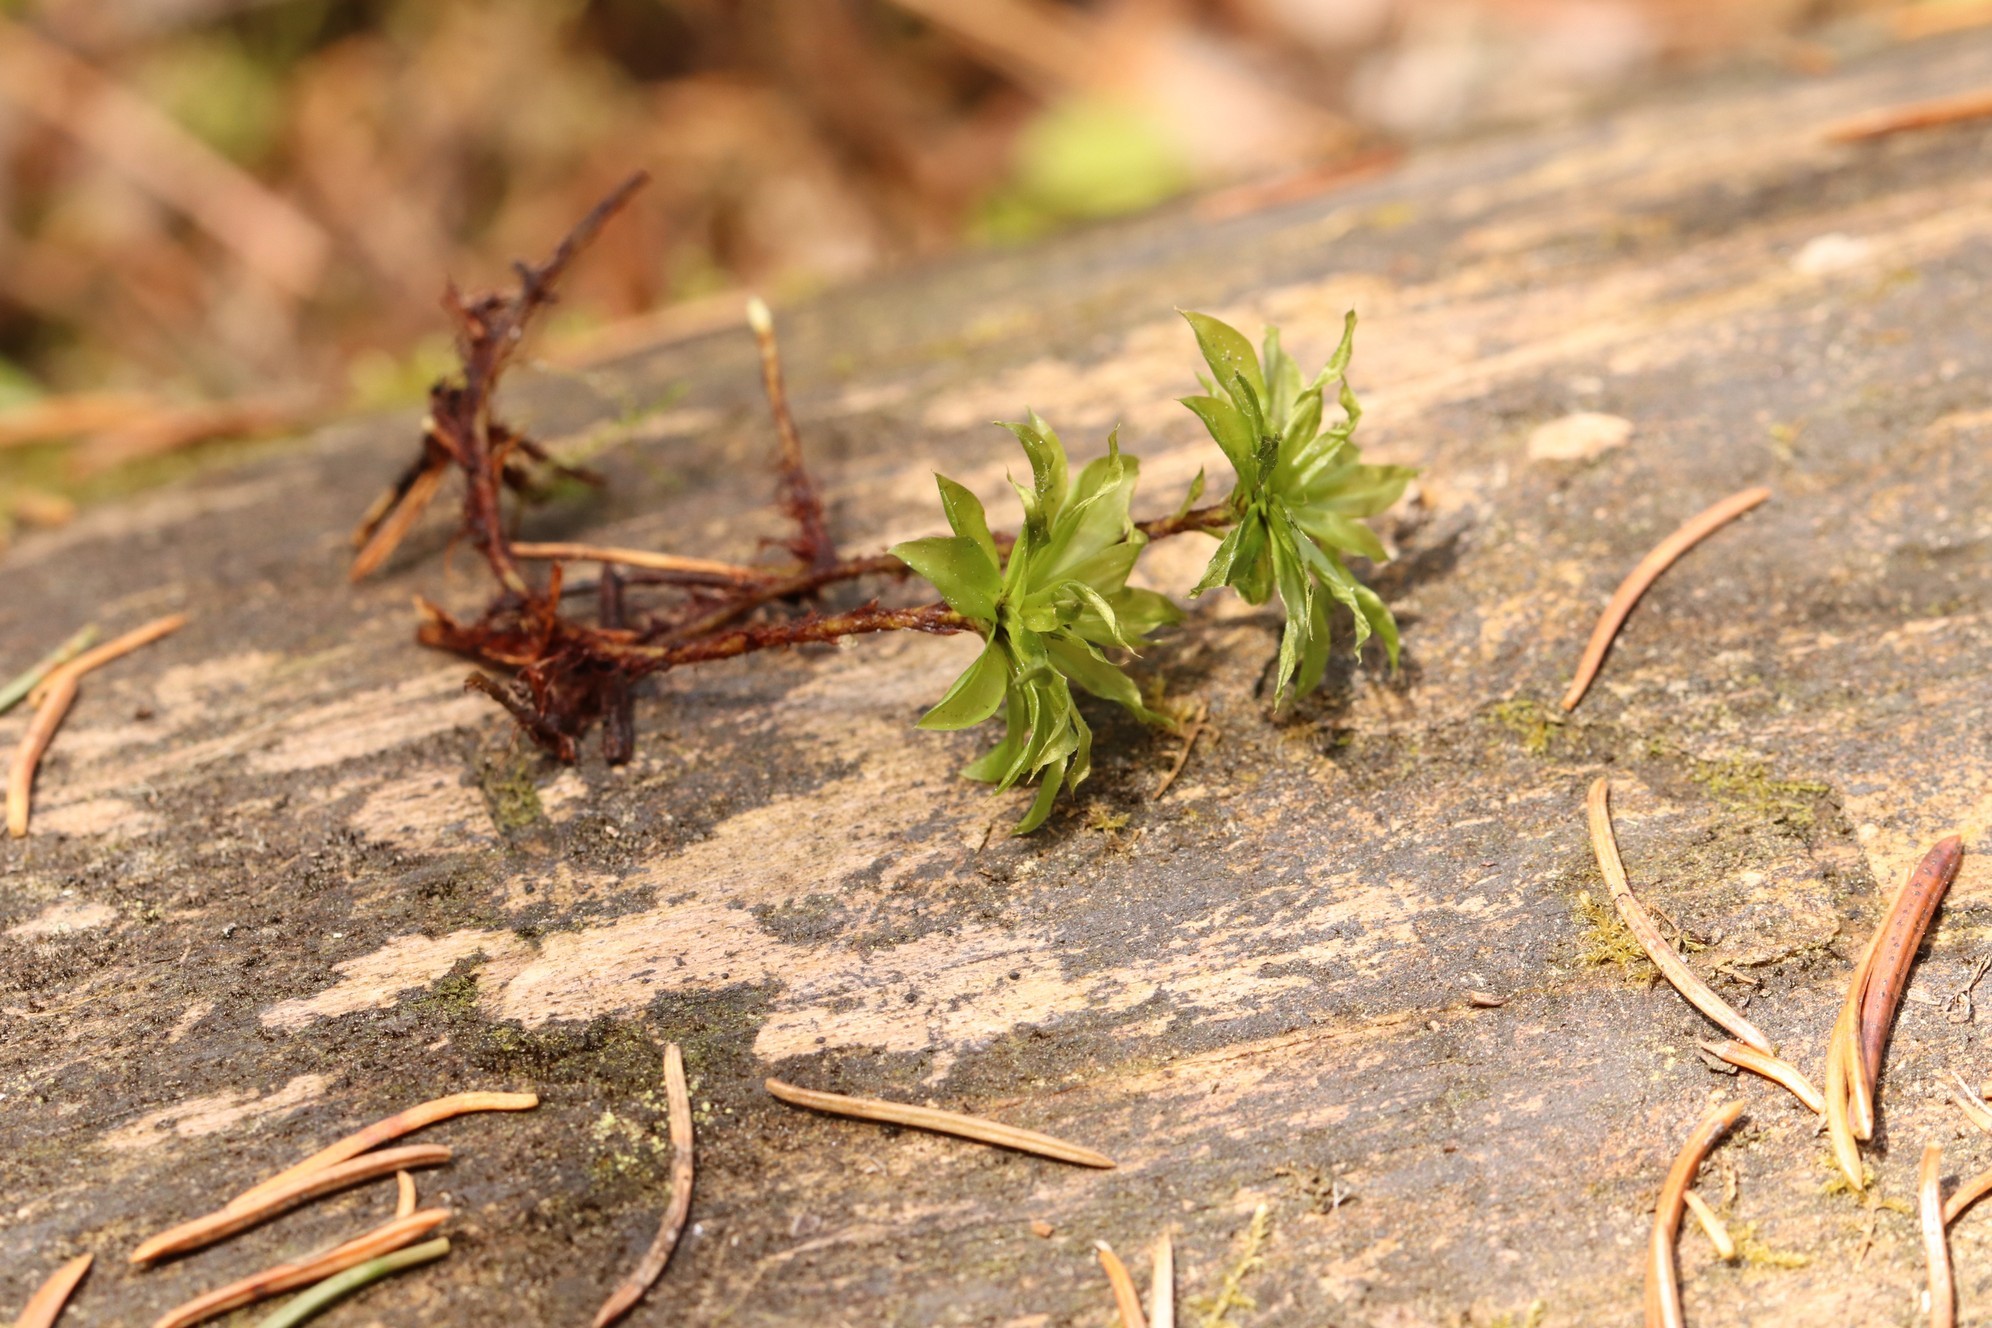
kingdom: Plantae
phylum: Bryophyta
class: Bryopsida
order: Bryales
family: Bryaceae
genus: Rhodobryum
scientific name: Rhodobryum roseum
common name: Rose-moss
